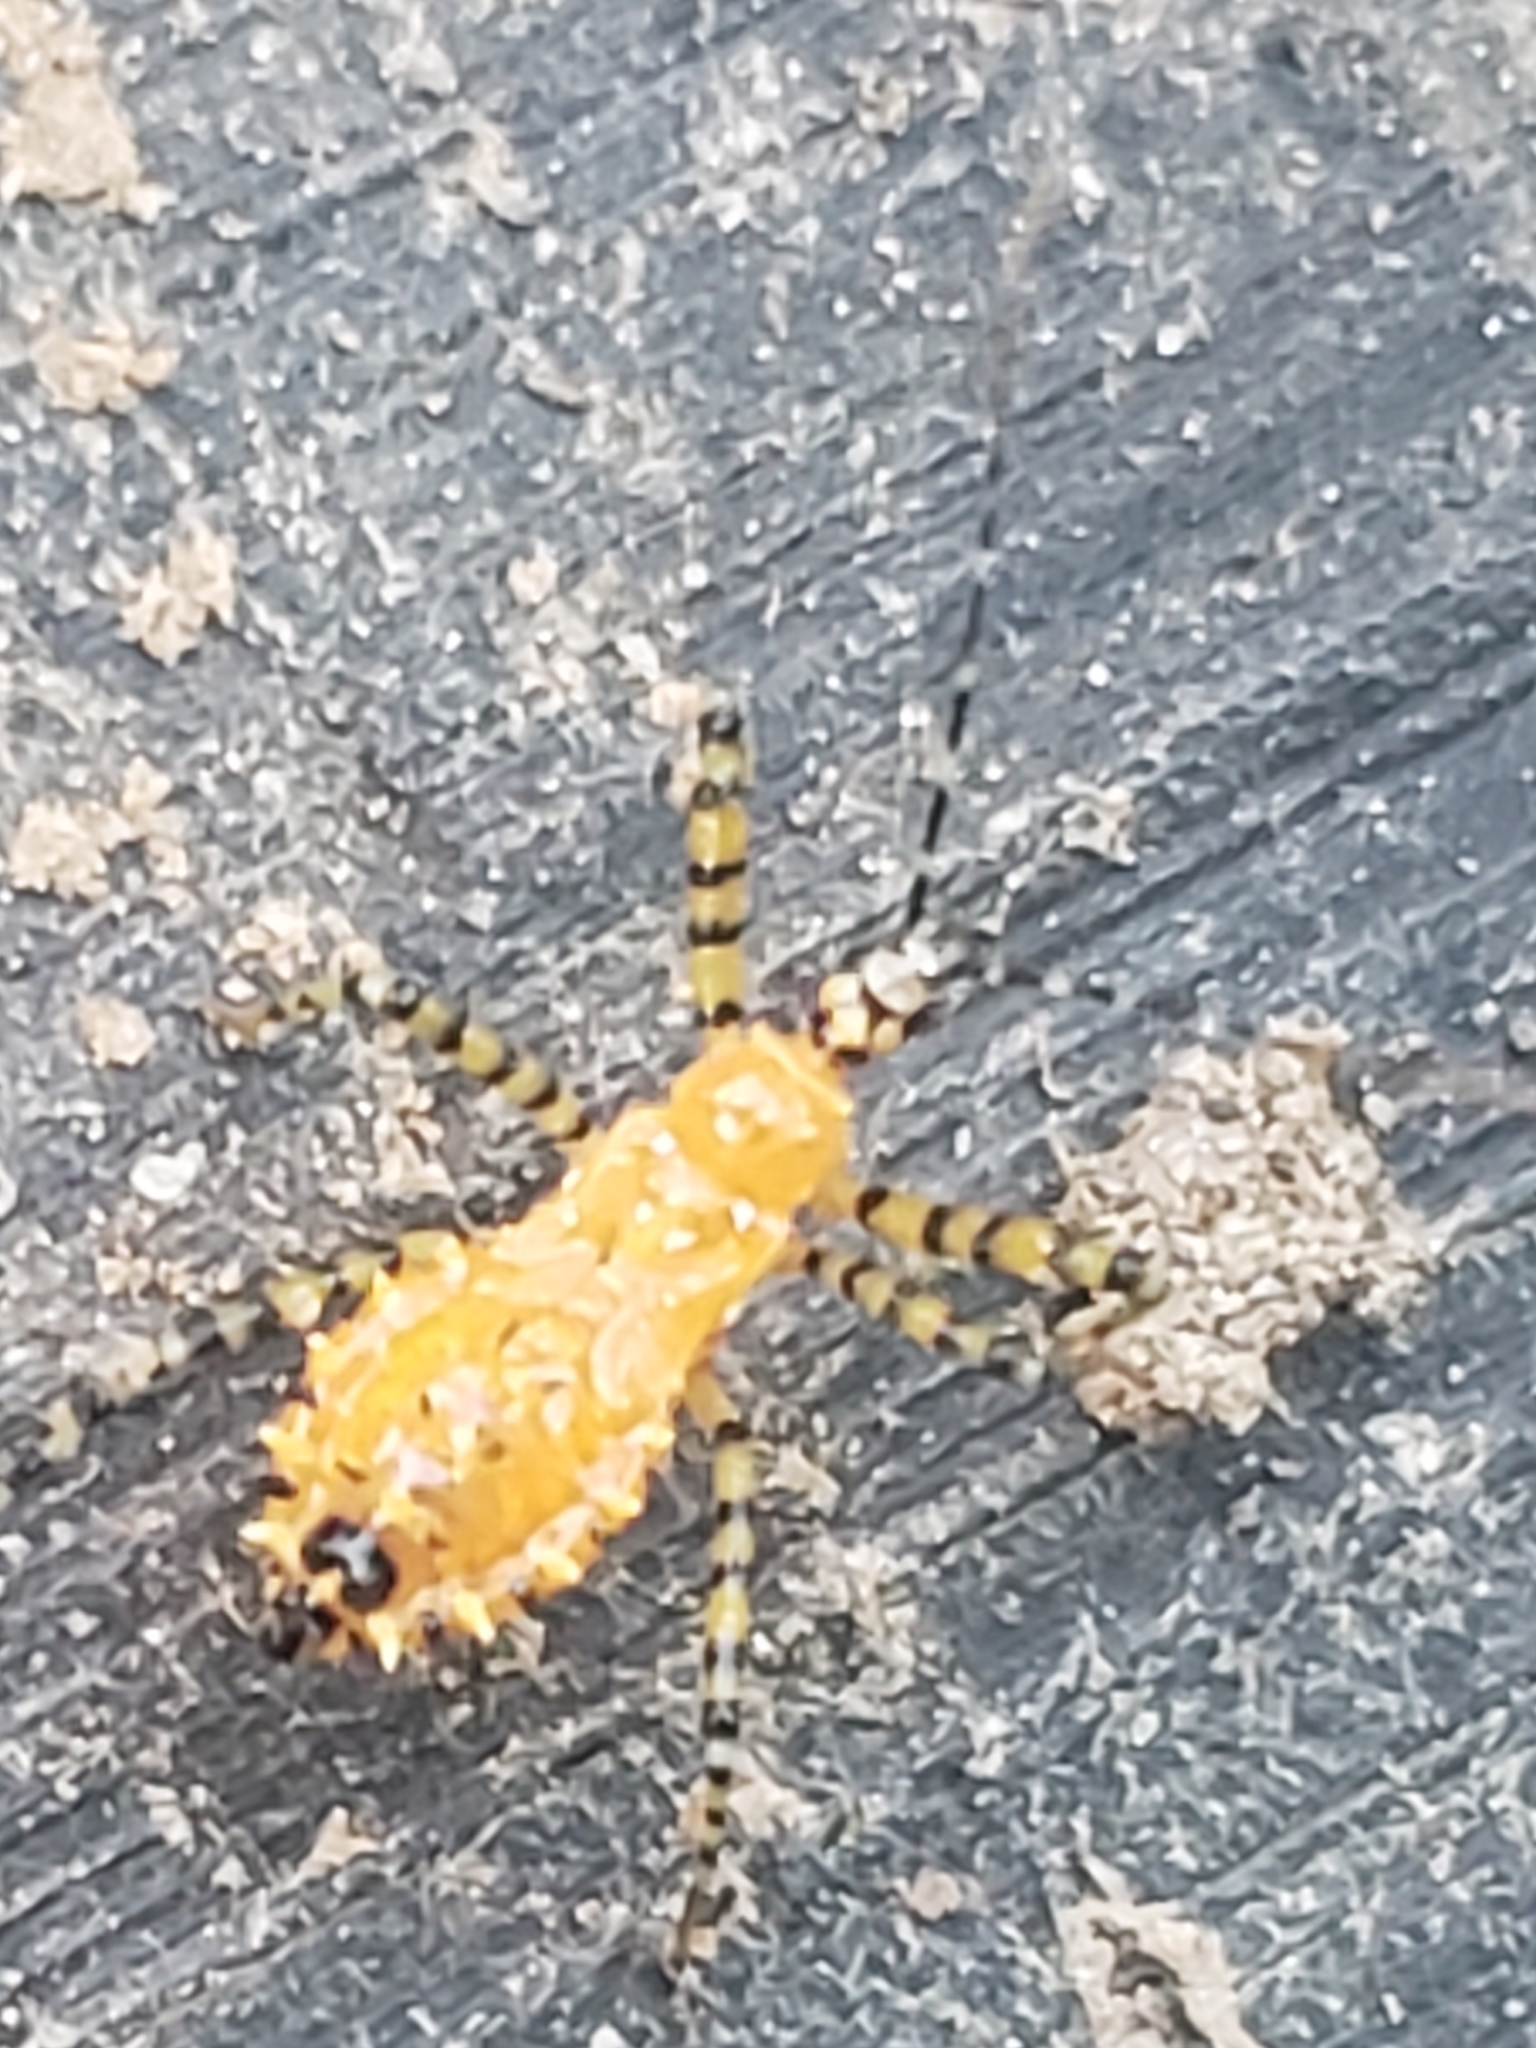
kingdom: Animalia
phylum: Arthropoda
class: Insecta
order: Hemiptera
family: Reduviidae
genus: Pselliopus
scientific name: Pselliopus barberi
